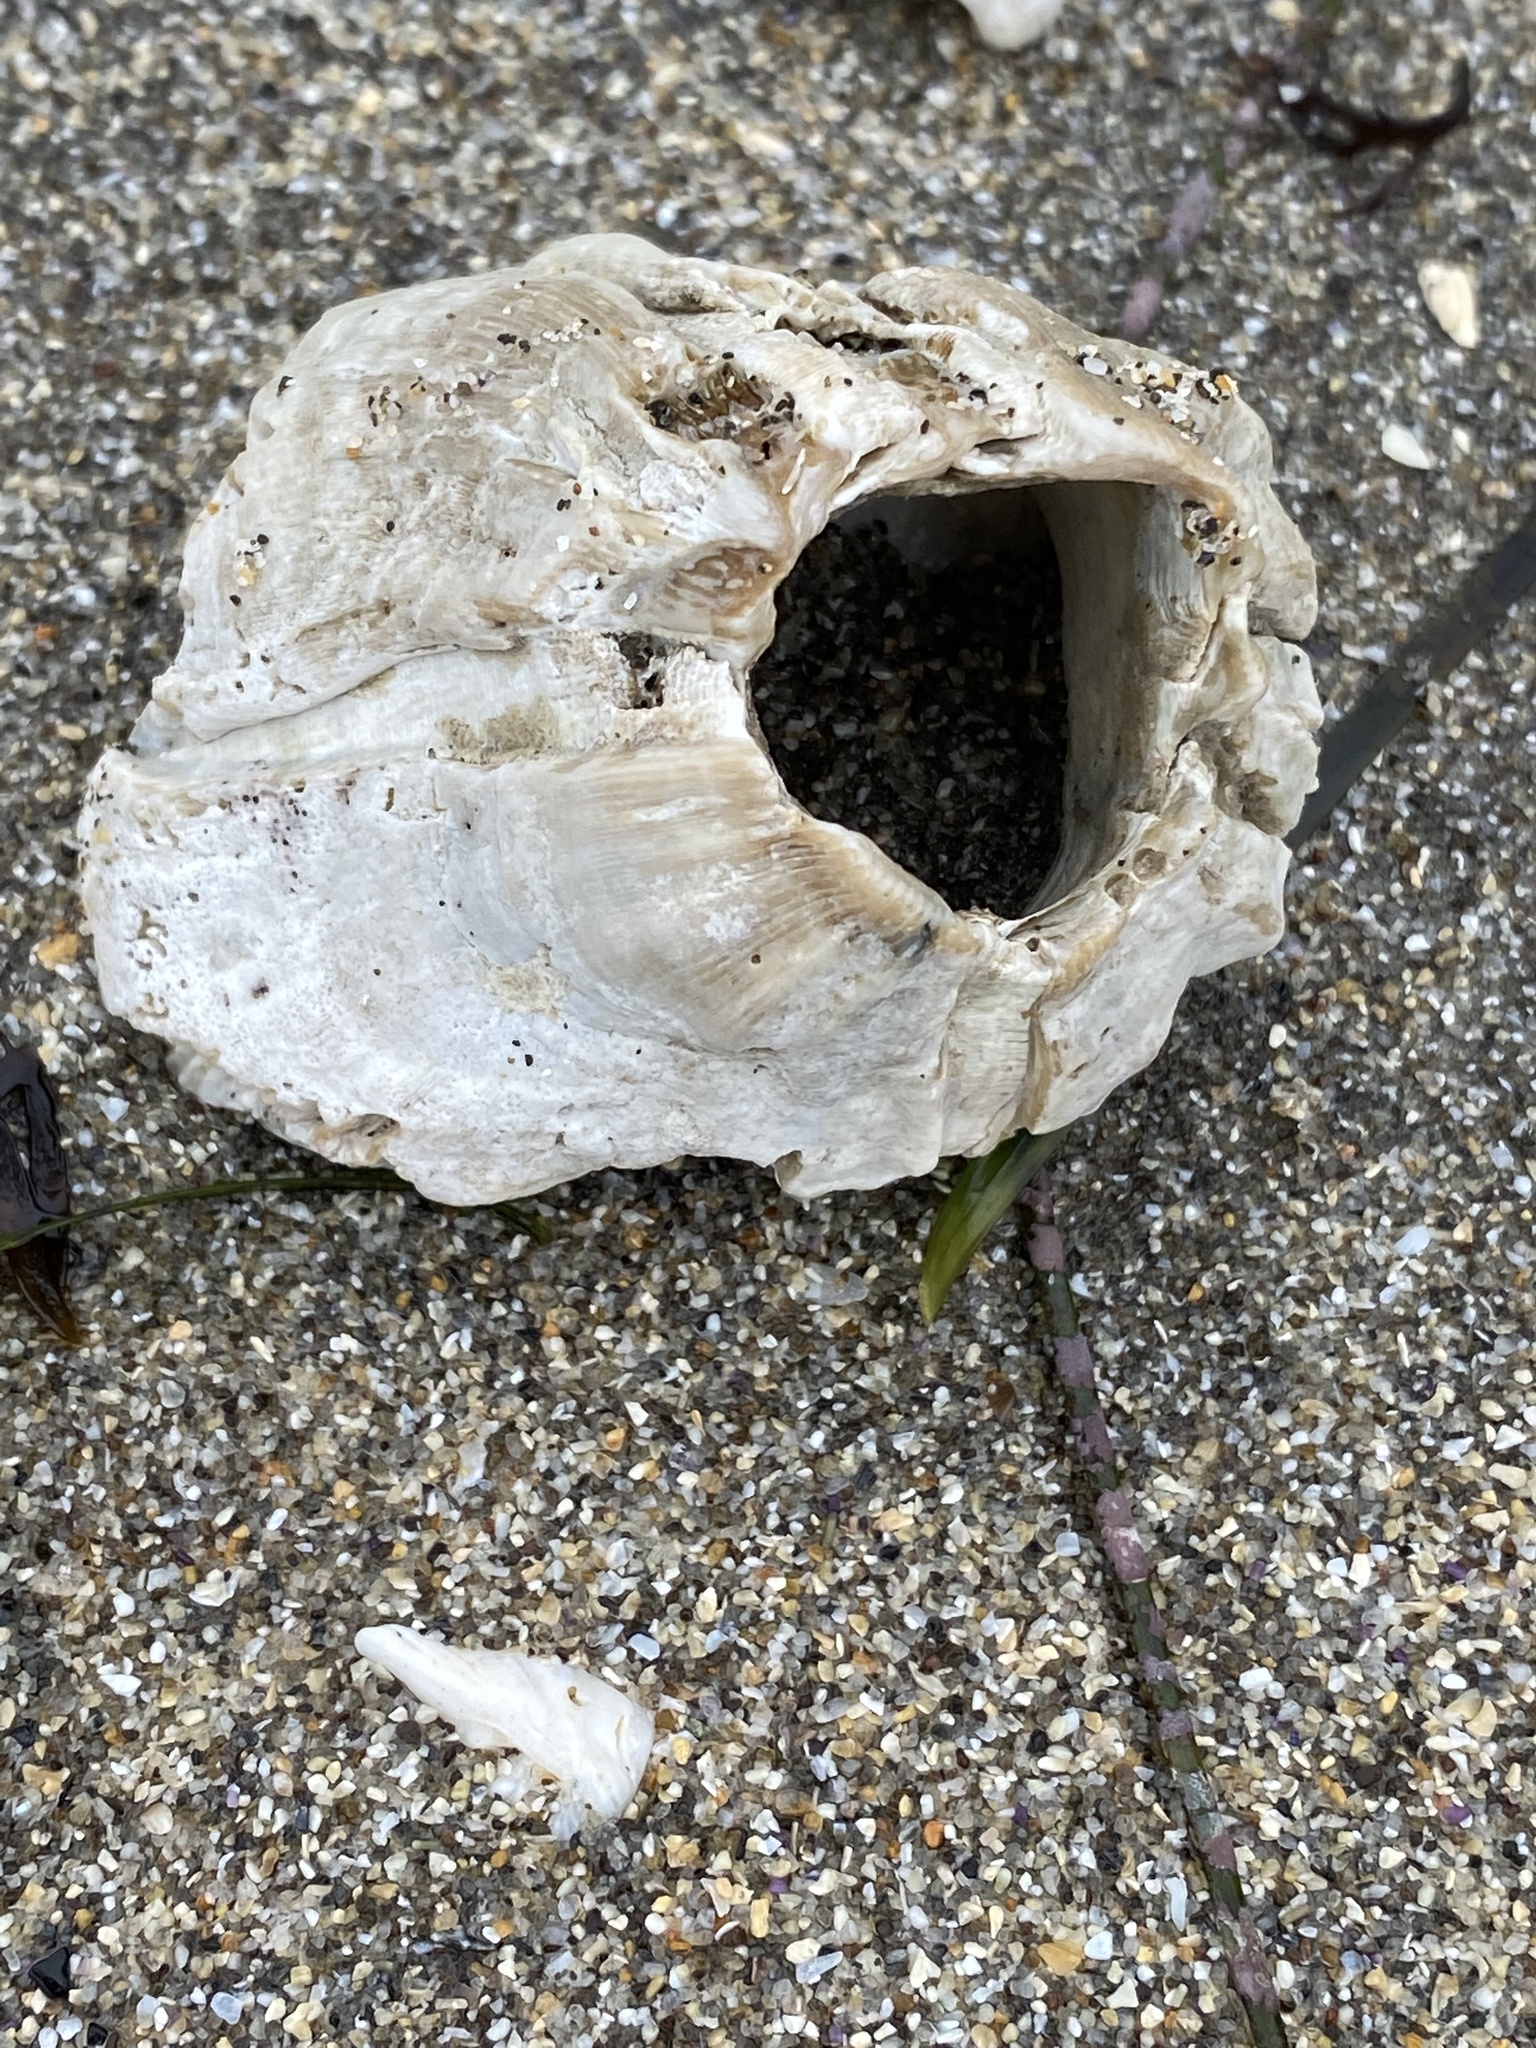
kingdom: Animalia
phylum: Arthropoda
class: Maxillopoda
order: Sessilia
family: Balanidae
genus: Balanus
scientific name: Balanus nubilus
